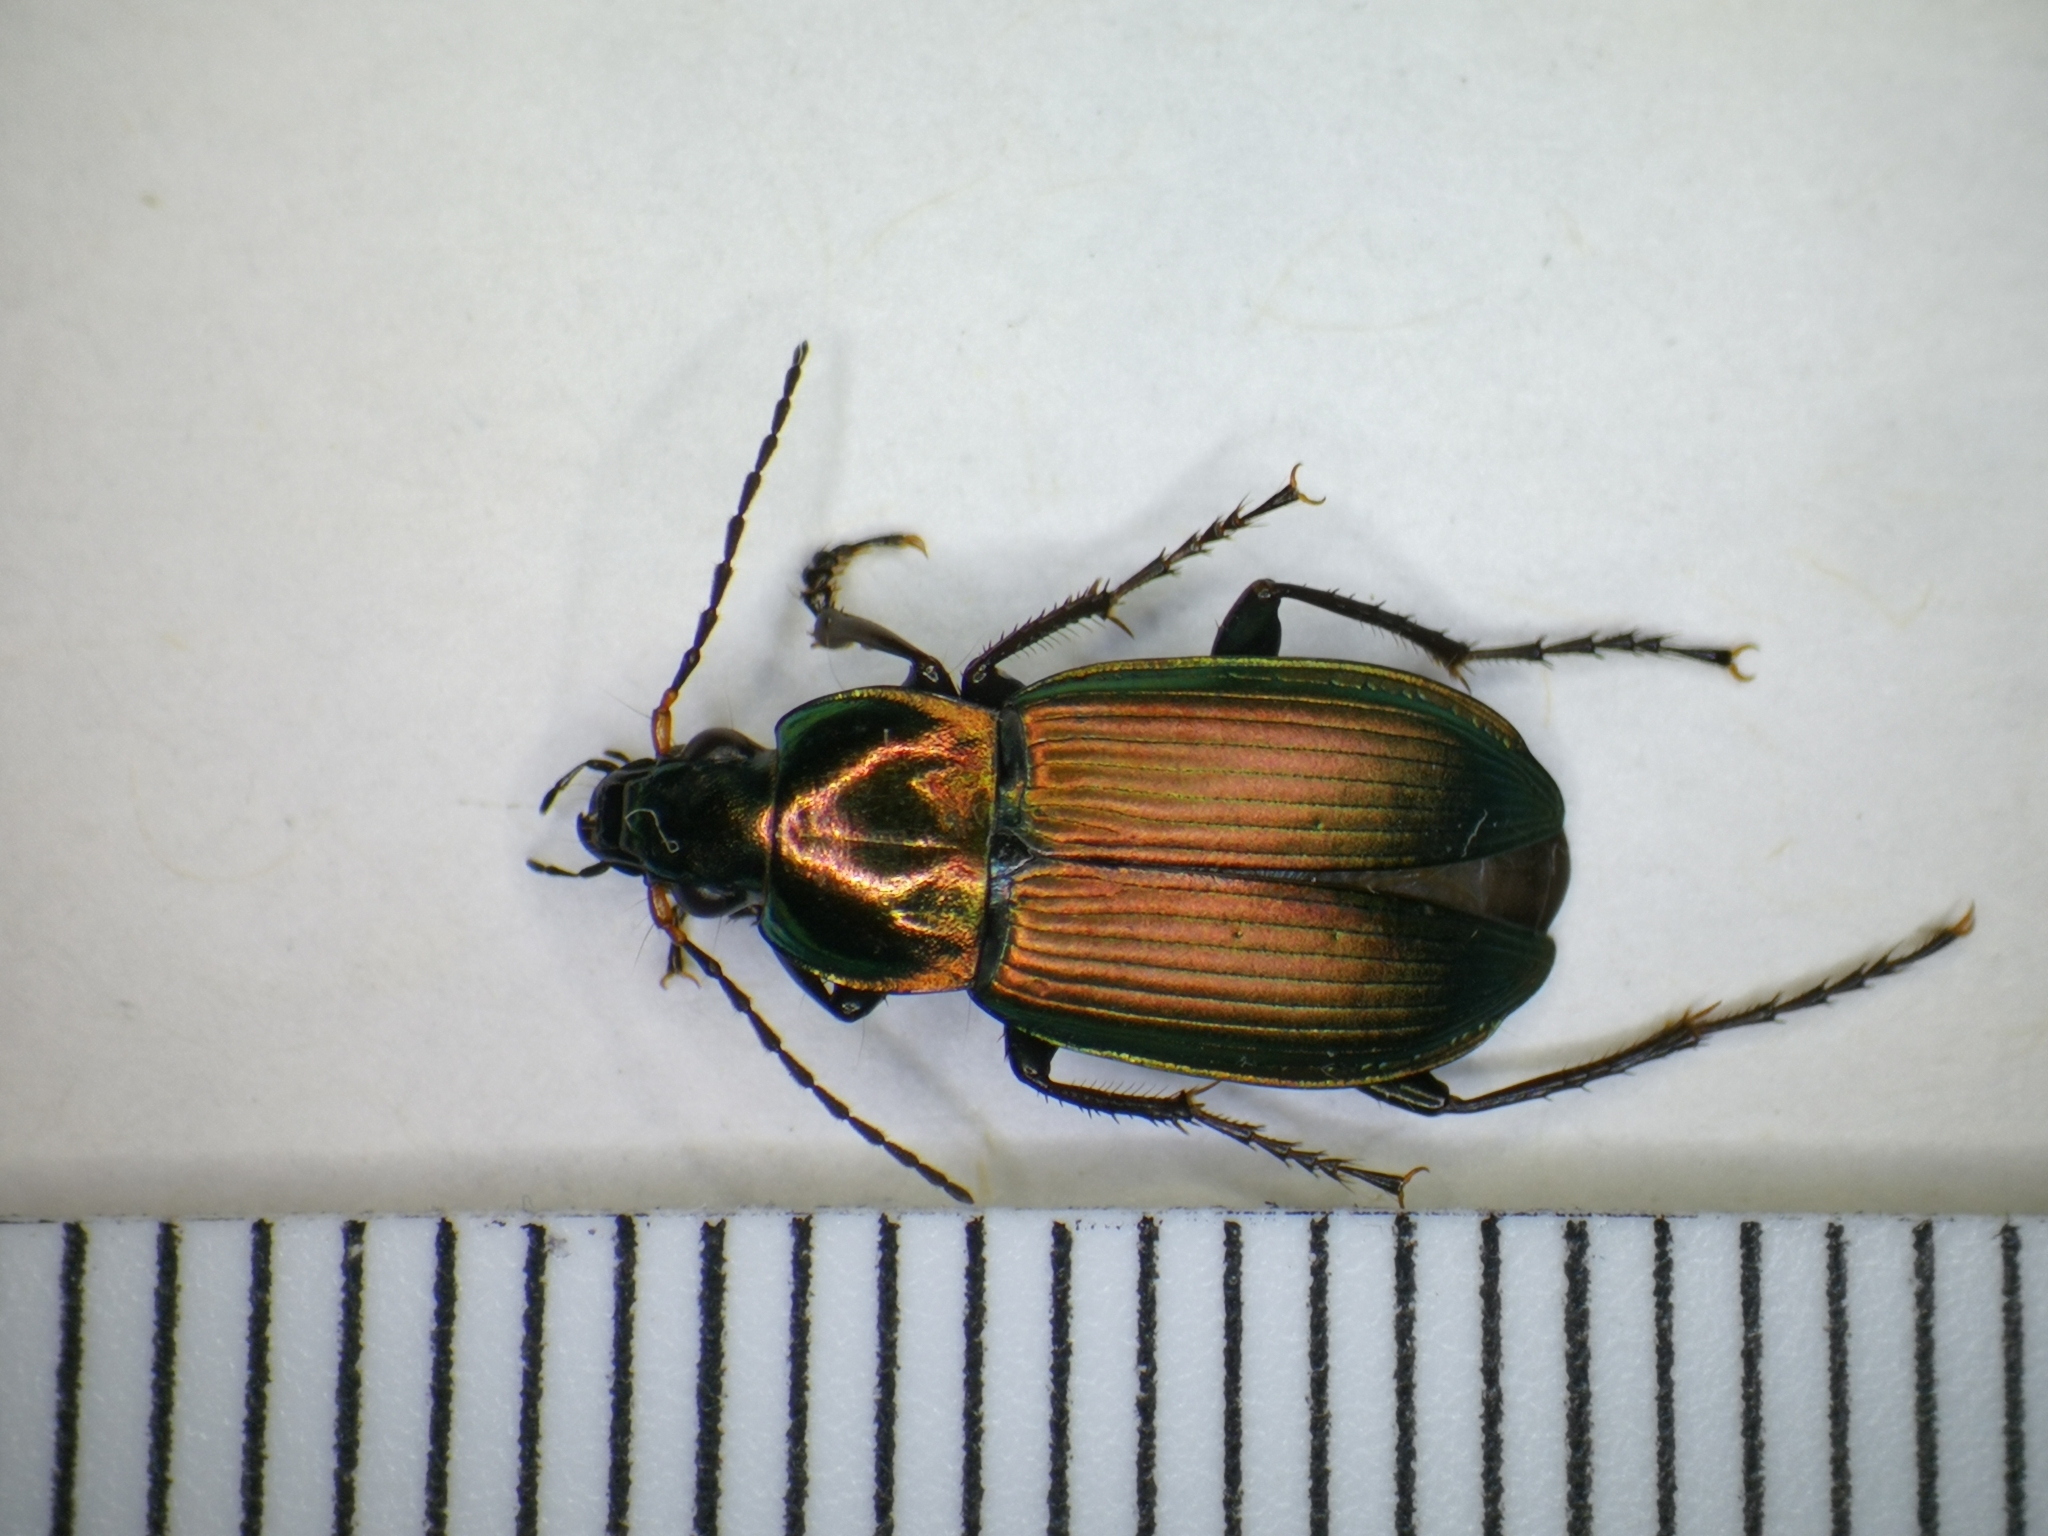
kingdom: Animalia
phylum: Arthropoda
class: Insecta
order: Coleoptera
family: Carabidae
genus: Poecilus
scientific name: Poecilus cupreus
